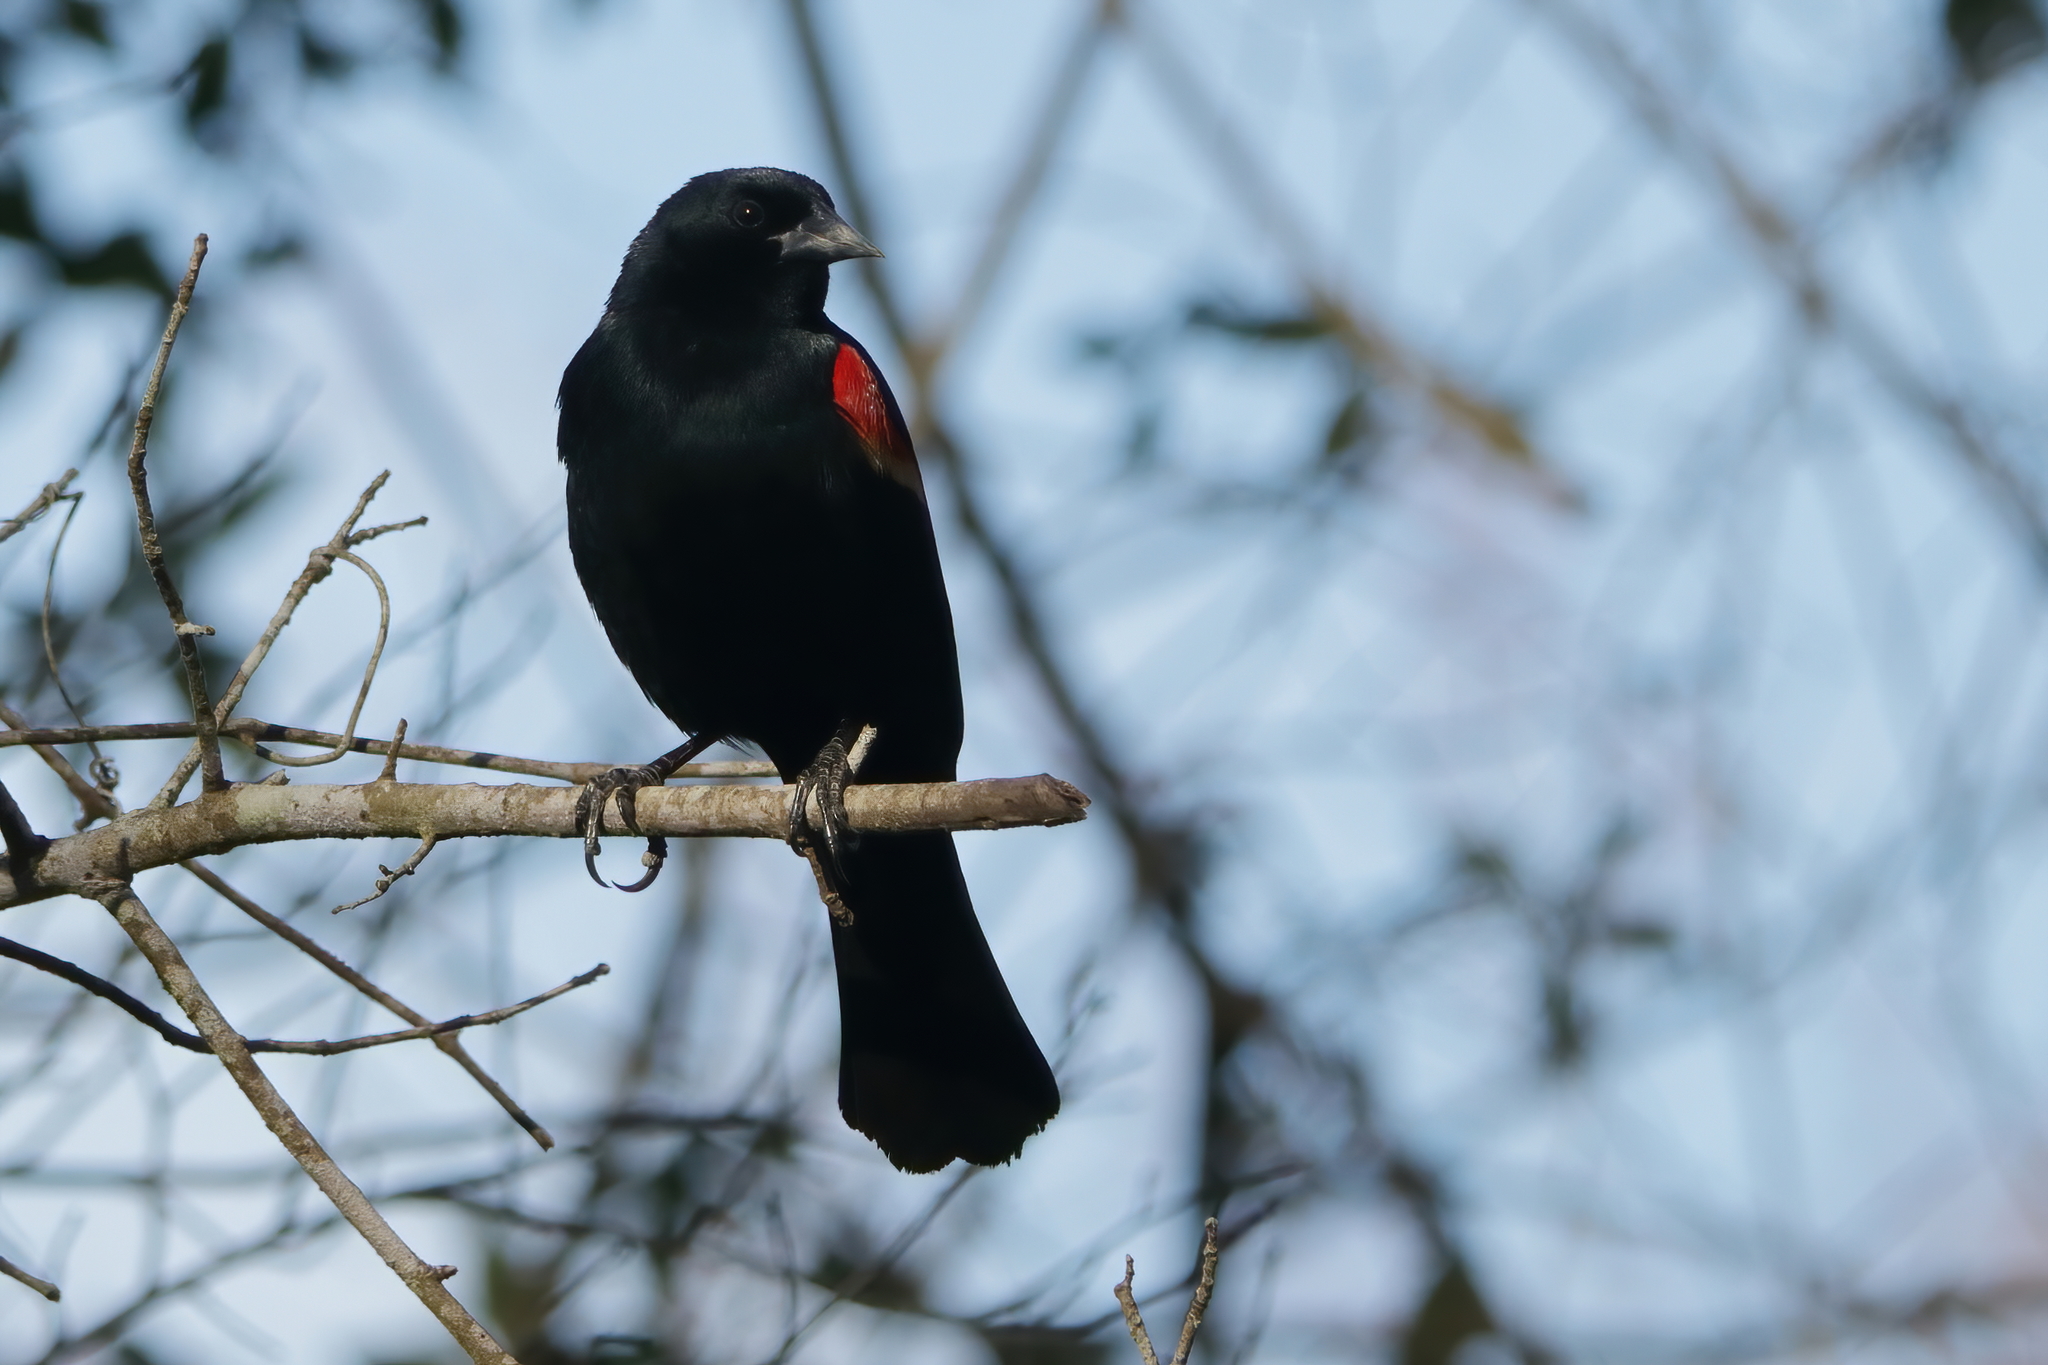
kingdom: Animalia
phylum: Chordata
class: Aves
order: Passeriformes
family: Icteridae
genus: Agelaius
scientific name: Agelaius phoeniceus
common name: Red-winged blackbird
